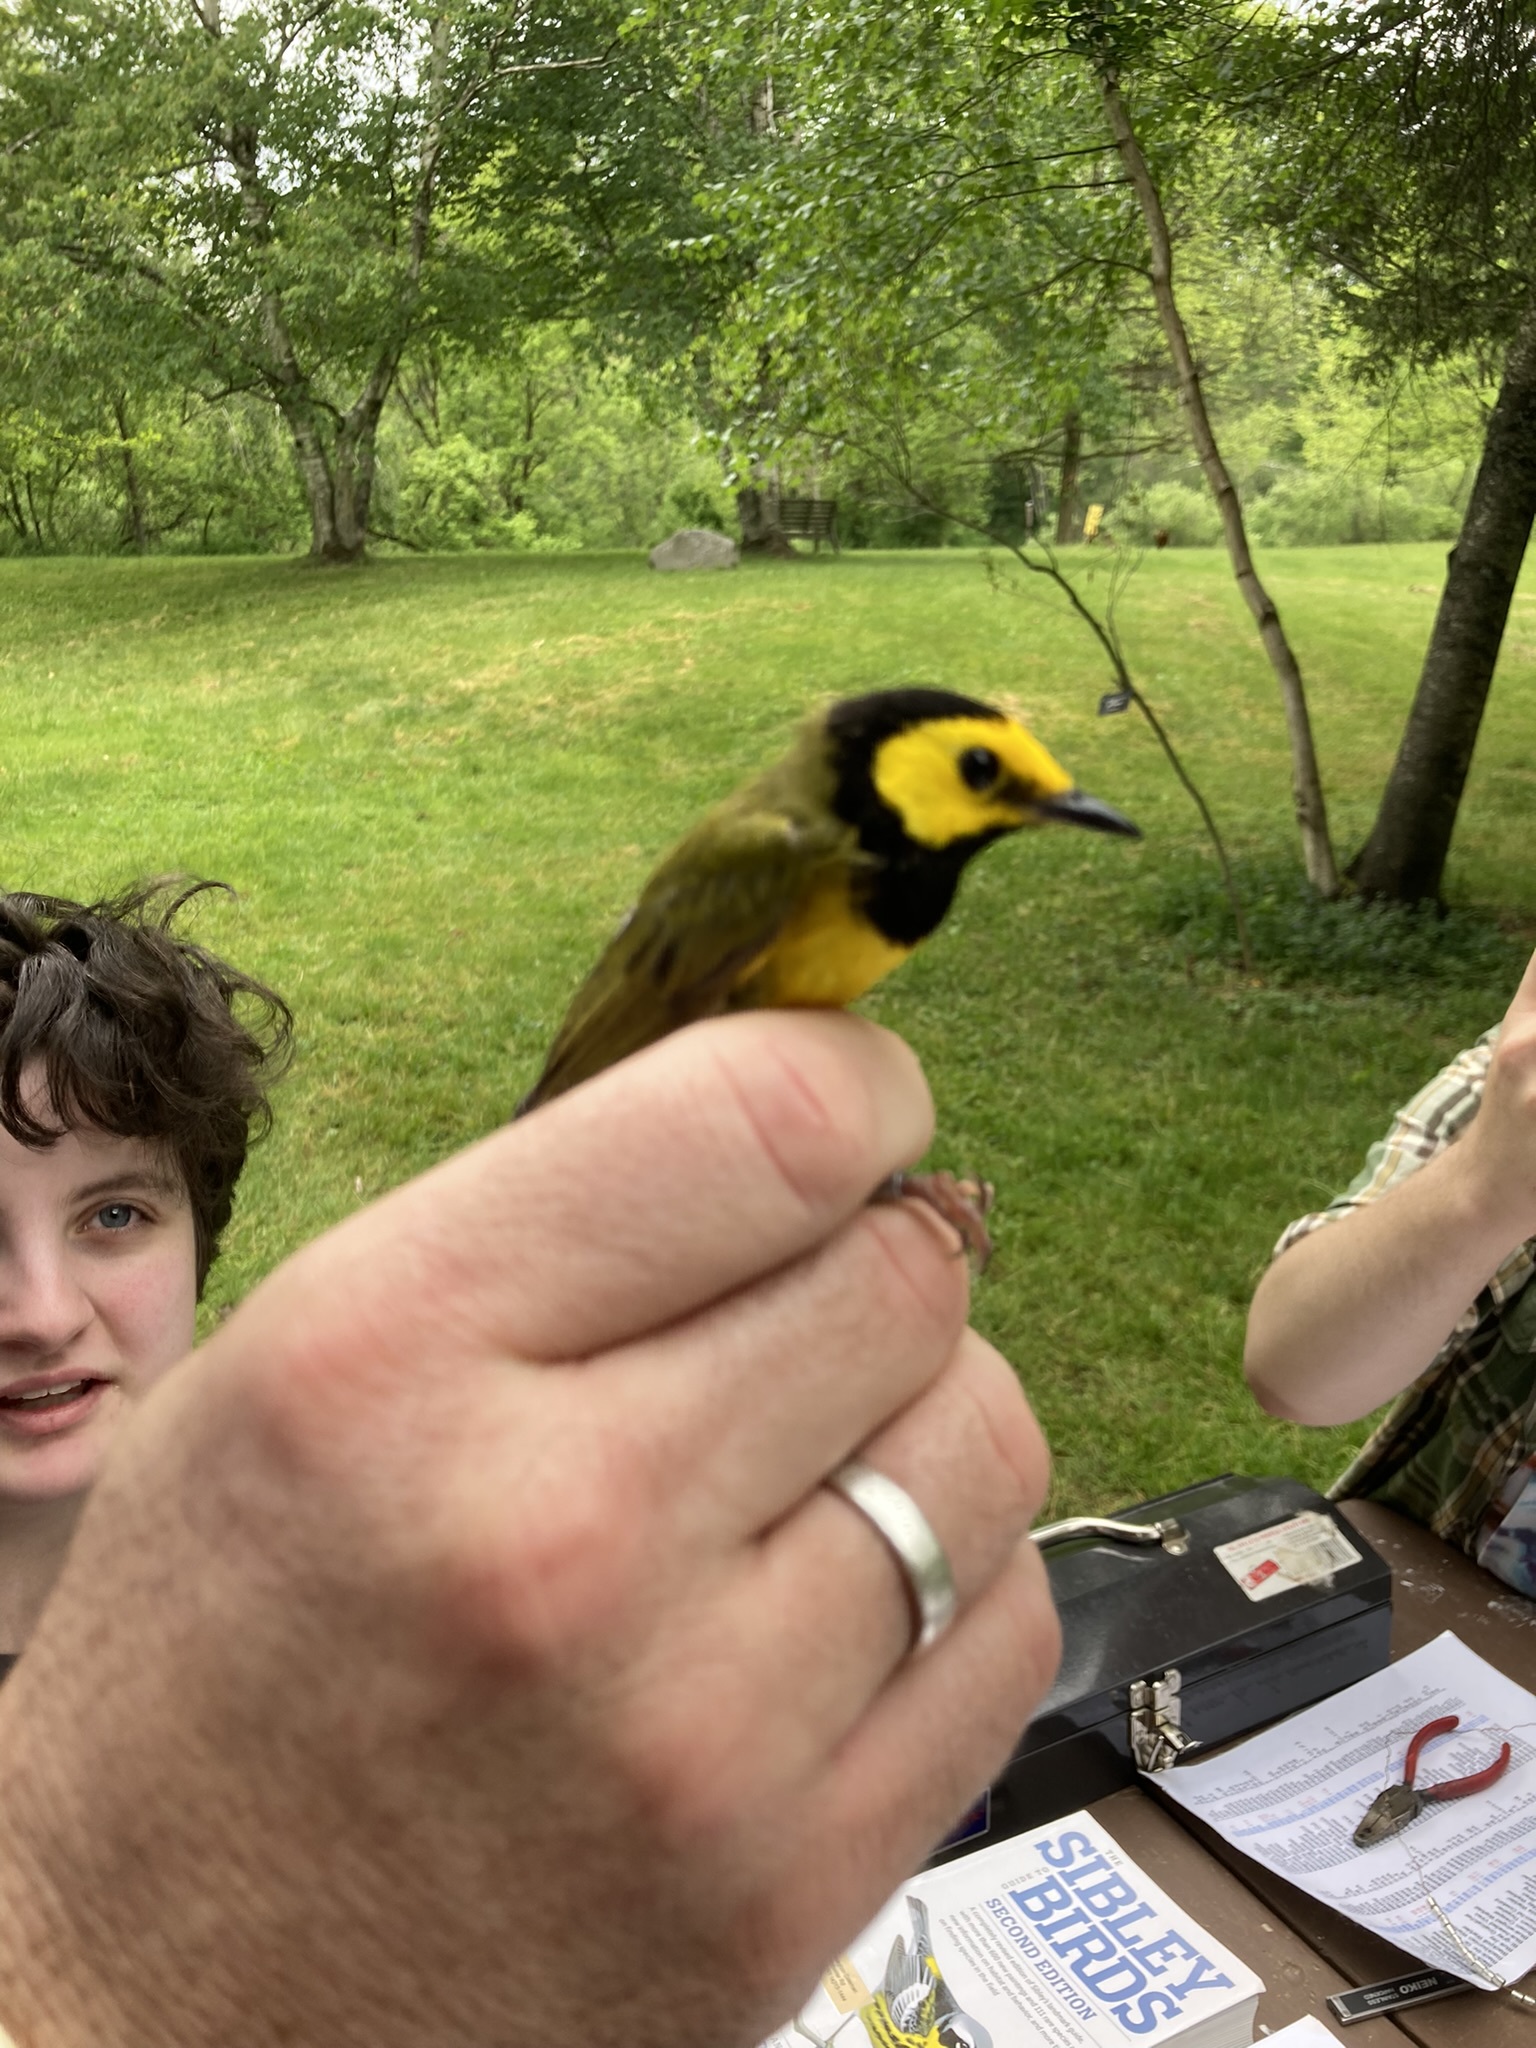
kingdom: Animalia
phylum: Chordata
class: Aves
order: Passeriformes
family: Parulidae
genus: Setophaga
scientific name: Setophaga citrina
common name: Hooded warbler
